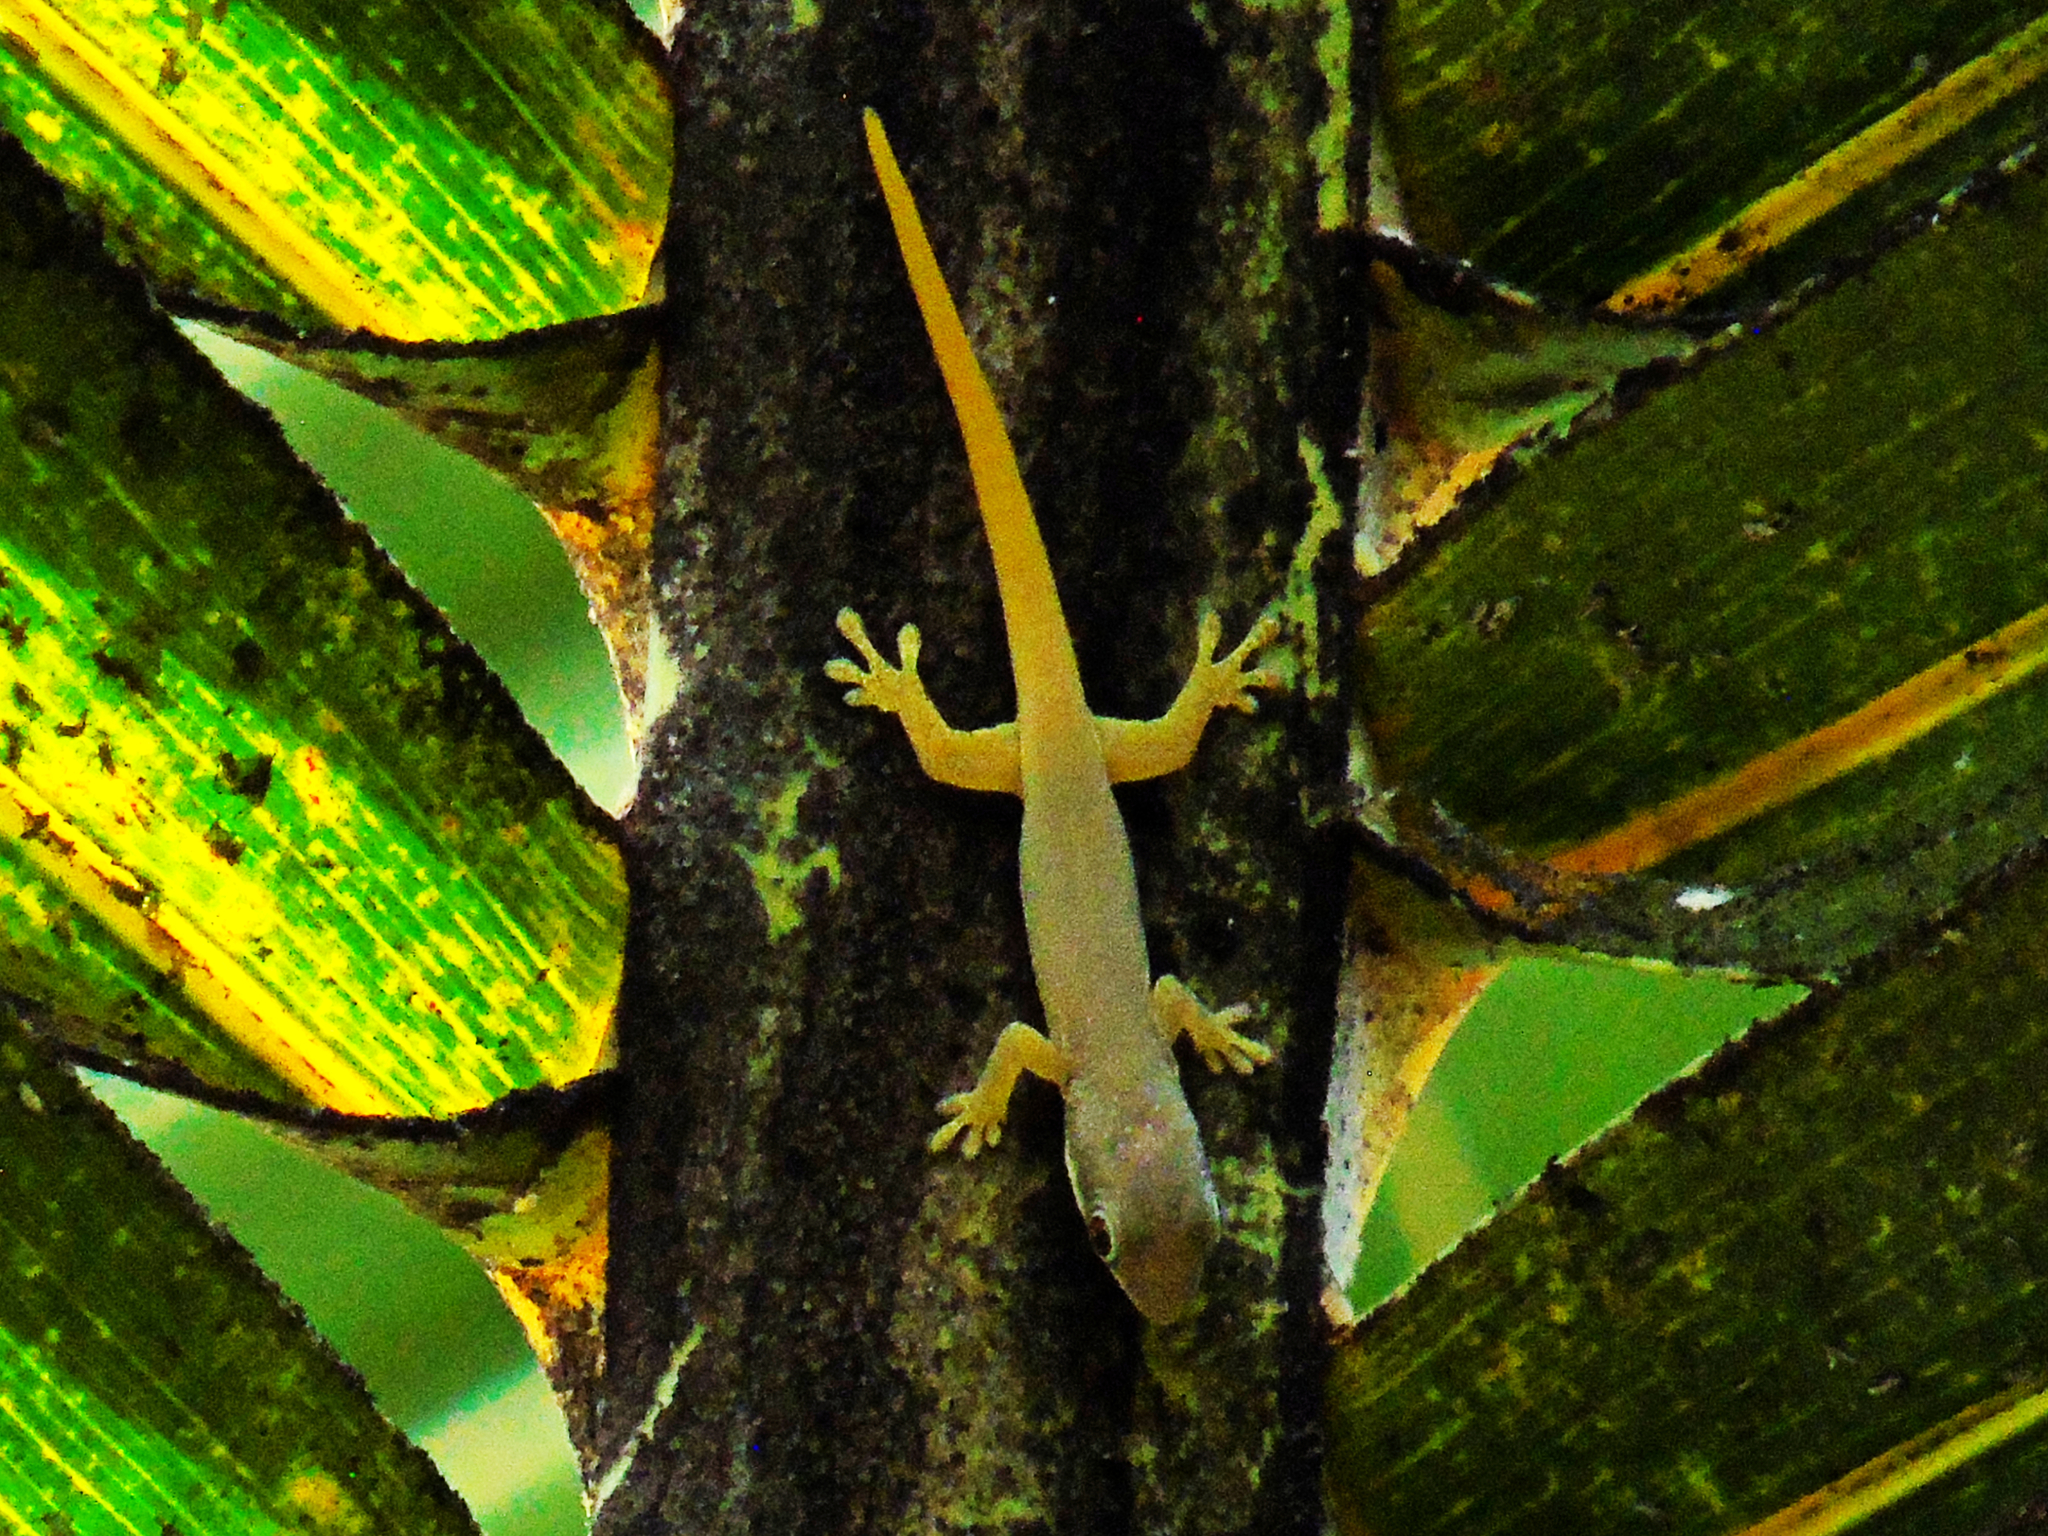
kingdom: Animalia
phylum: Chordata
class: Squamata
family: Gekkonidae
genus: Phelsuma
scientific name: Phelsuma dubia
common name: Zanzibar day gecko
